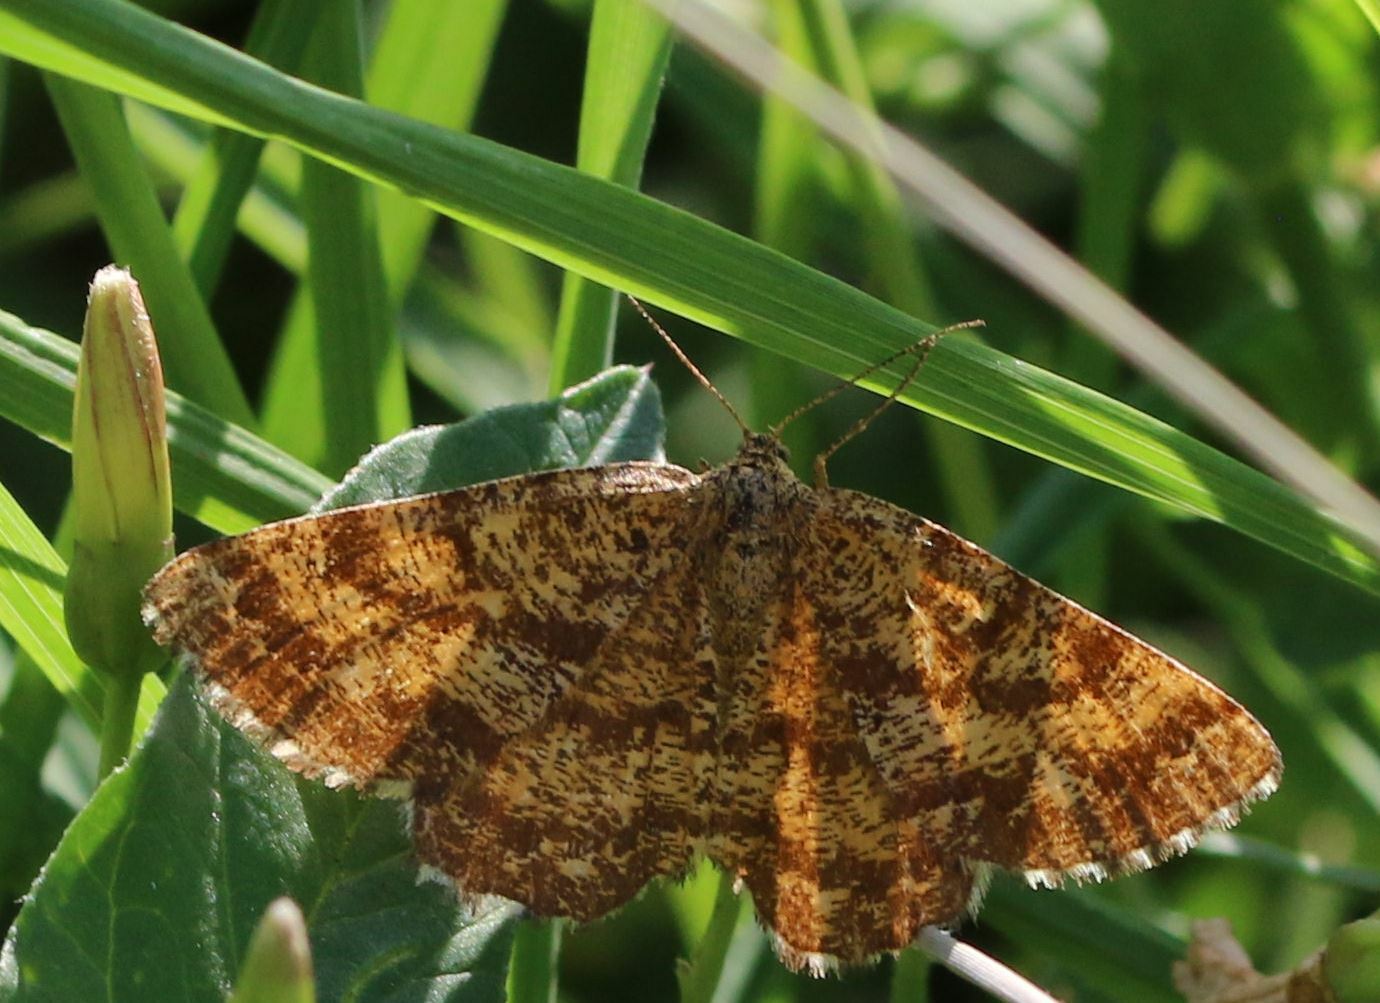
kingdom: Animalia
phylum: Arthropoda
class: Insecta
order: Lepidoptera
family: Geometridae
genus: Ematurga
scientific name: Ematurga atomaria
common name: Common heath
